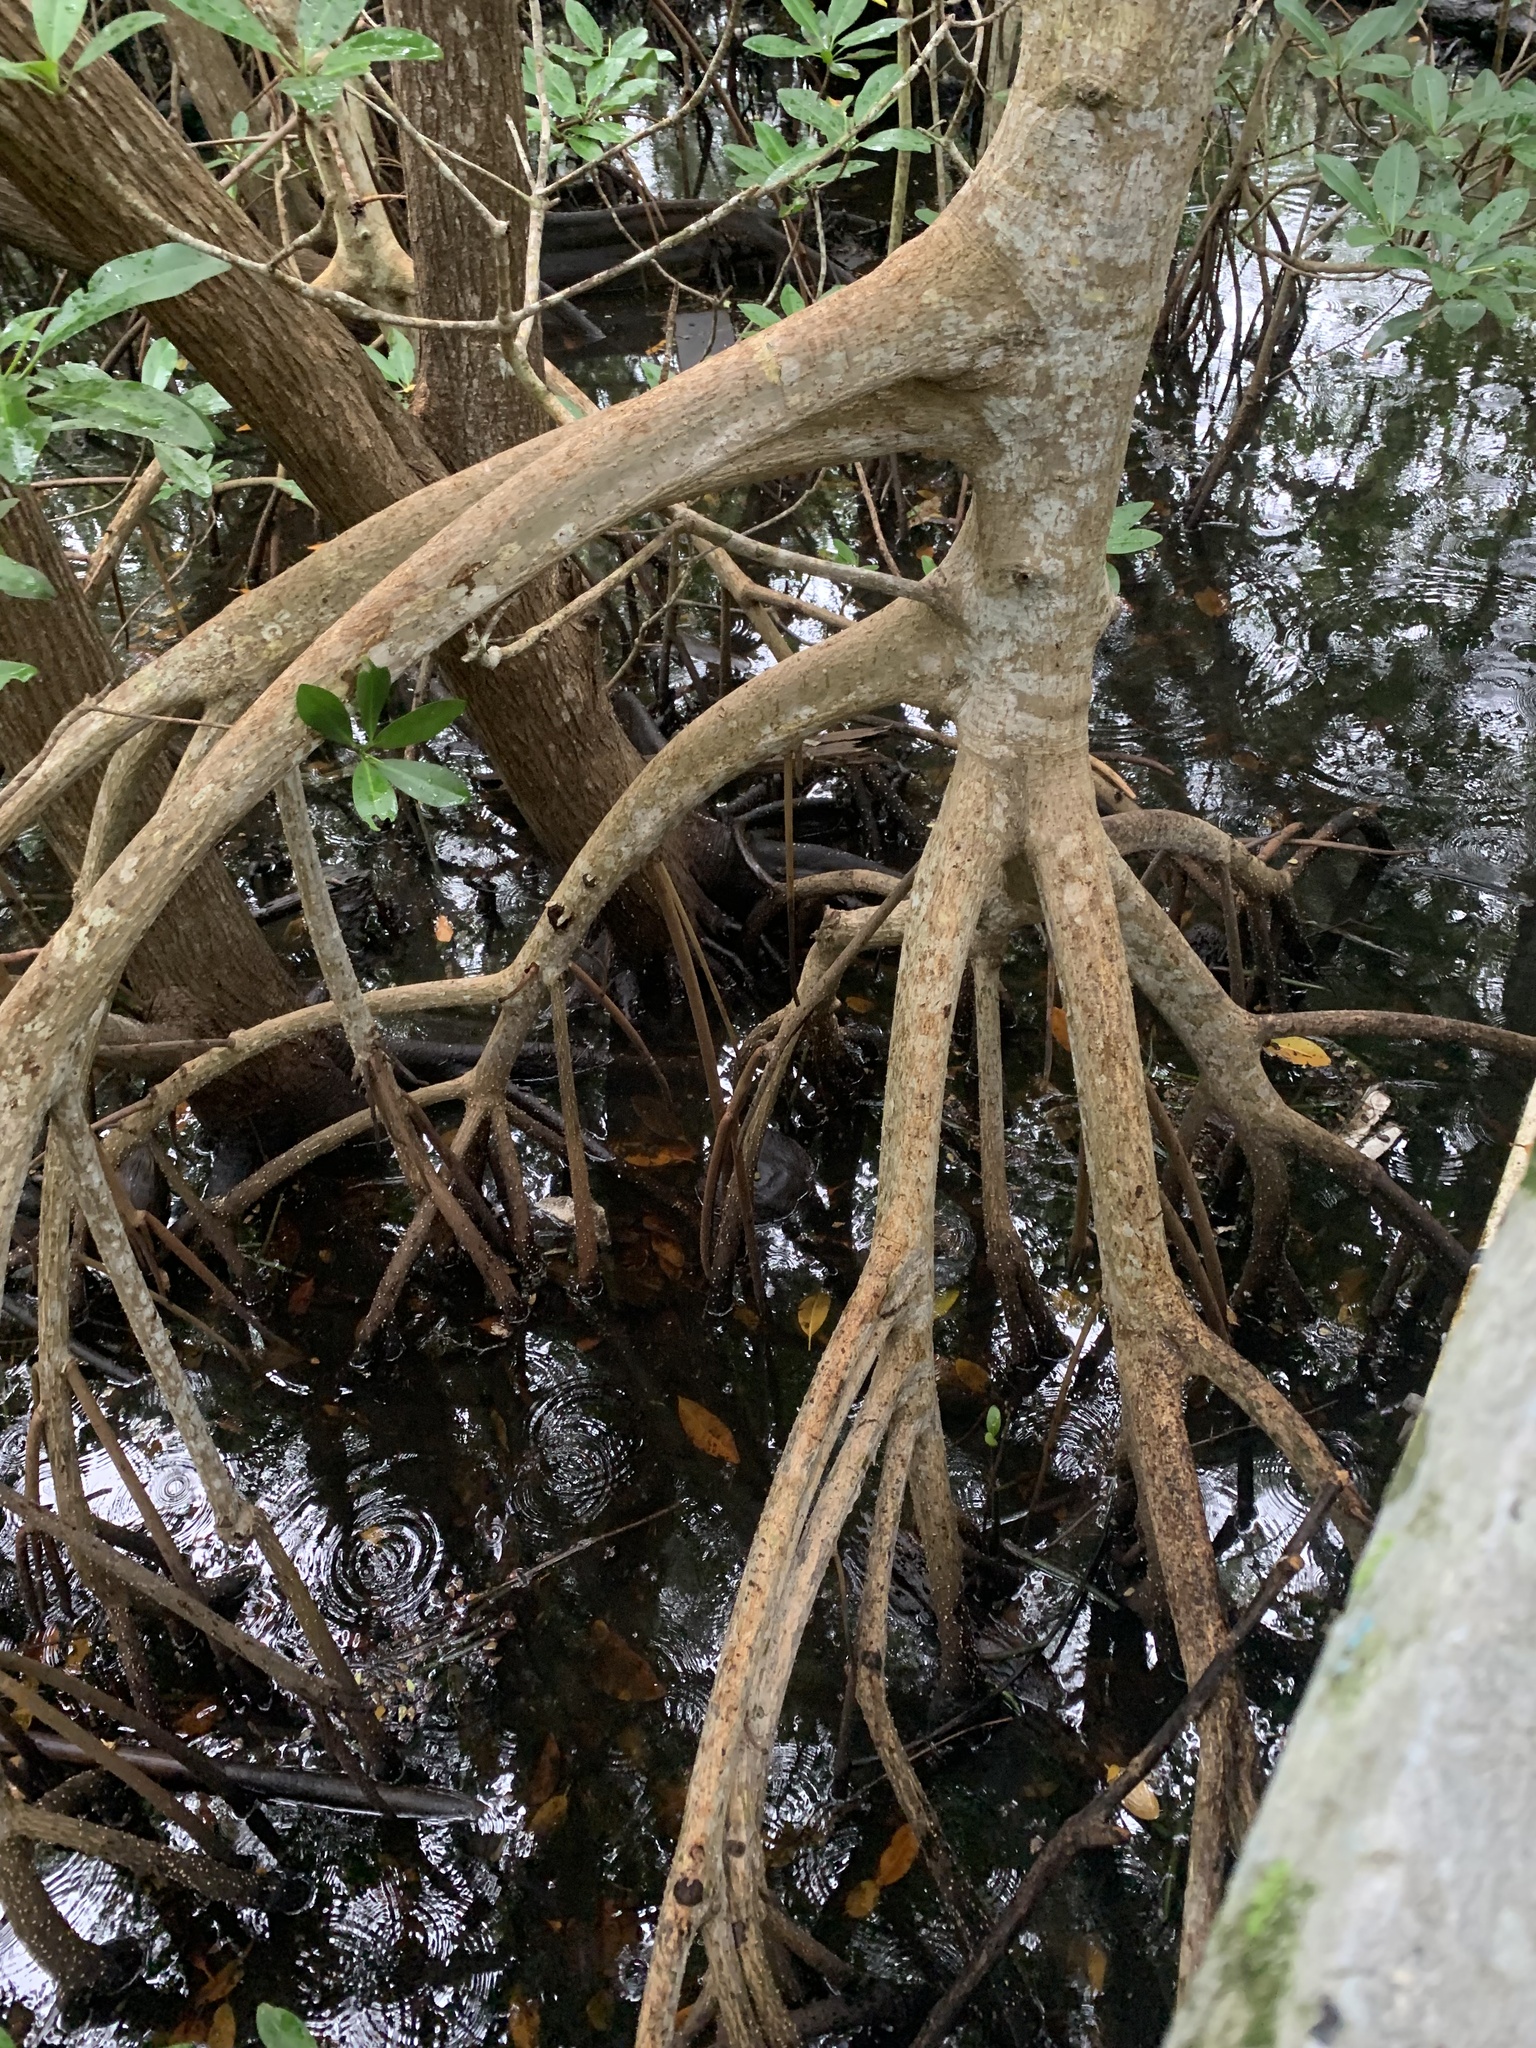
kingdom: Plantae
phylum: Tracheophyta
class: Magnoliopsida
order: Malpighiales
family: Rhizophoraceae
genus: Rhizophora
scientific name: Rhizophora mangle
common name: Red mangrove
